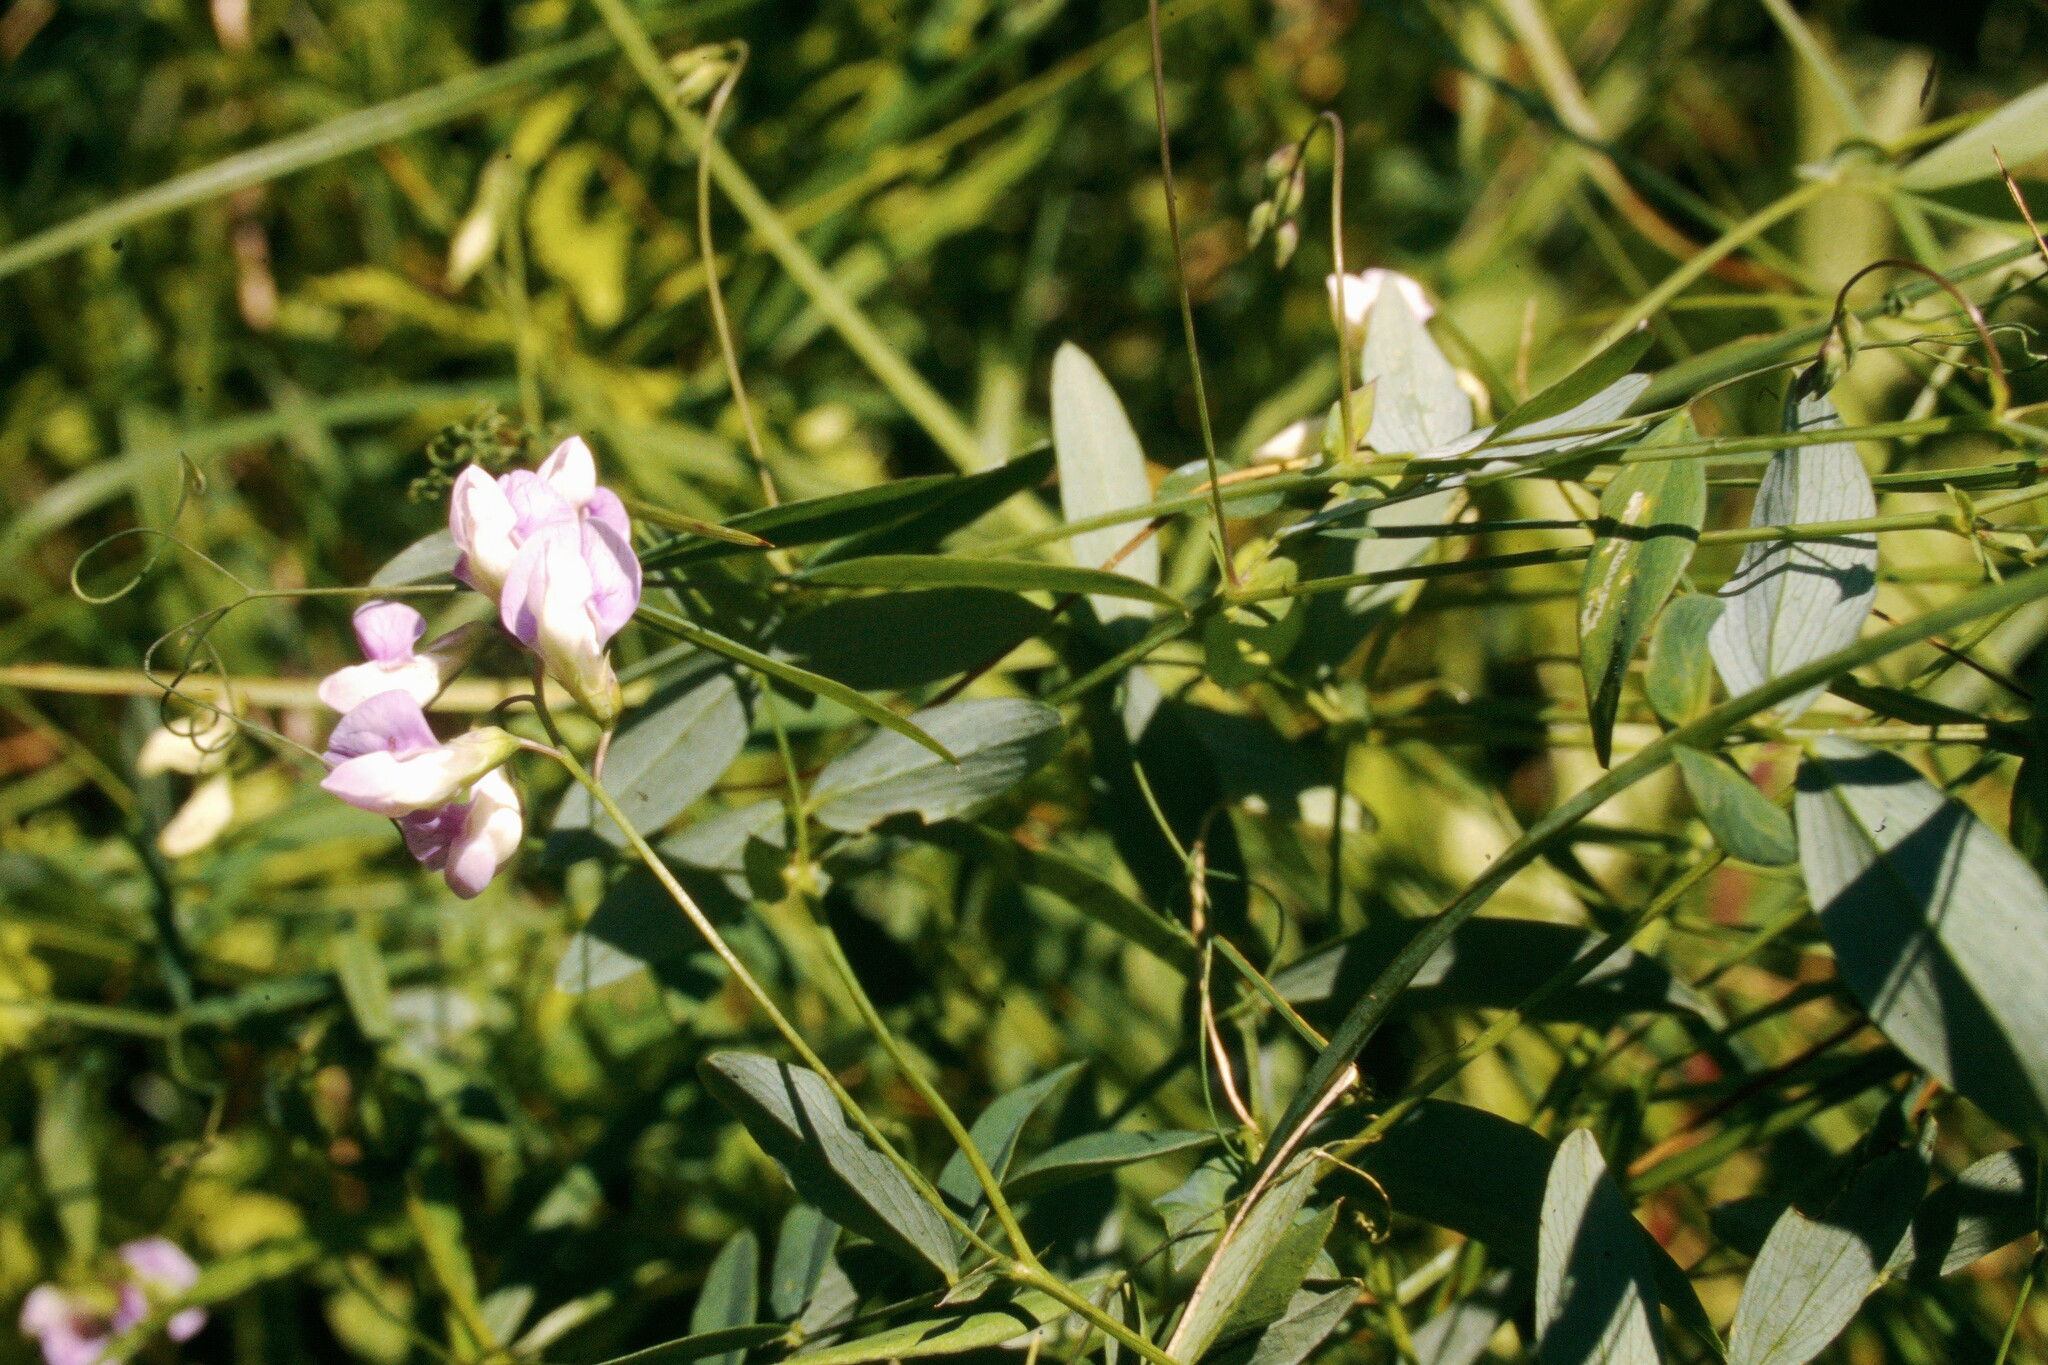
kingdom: Plantae
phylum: Tracheophyta
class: Magnoliopsida
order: Fabales
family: Fabaceae
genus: Lathyrus
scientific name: Lathyrus palustris
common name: Marsh pea
